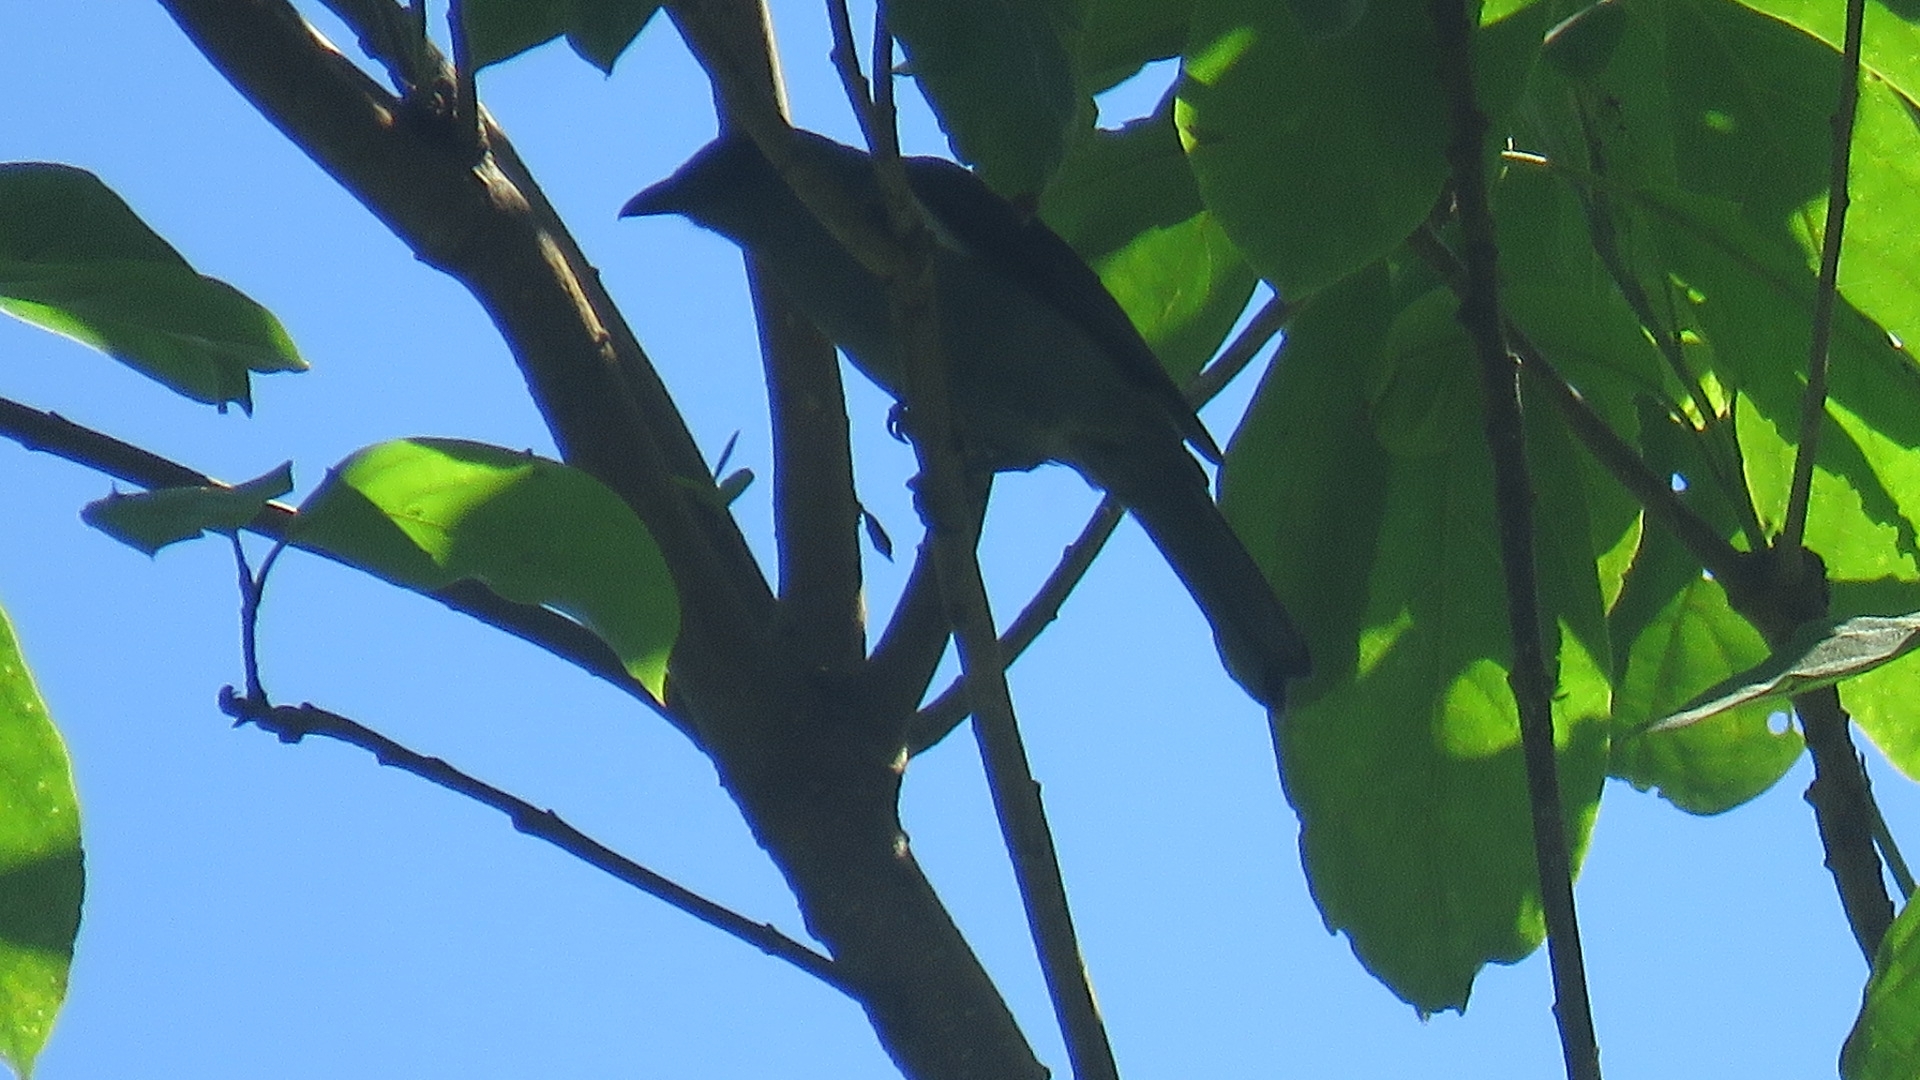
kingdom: Animalia
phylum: Chordata
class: Aves
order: Passeriformes
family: Thraupidae
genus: Heterospingus
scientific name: Heterospingus rubrifrons
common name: Sulphur-rumped tanager
